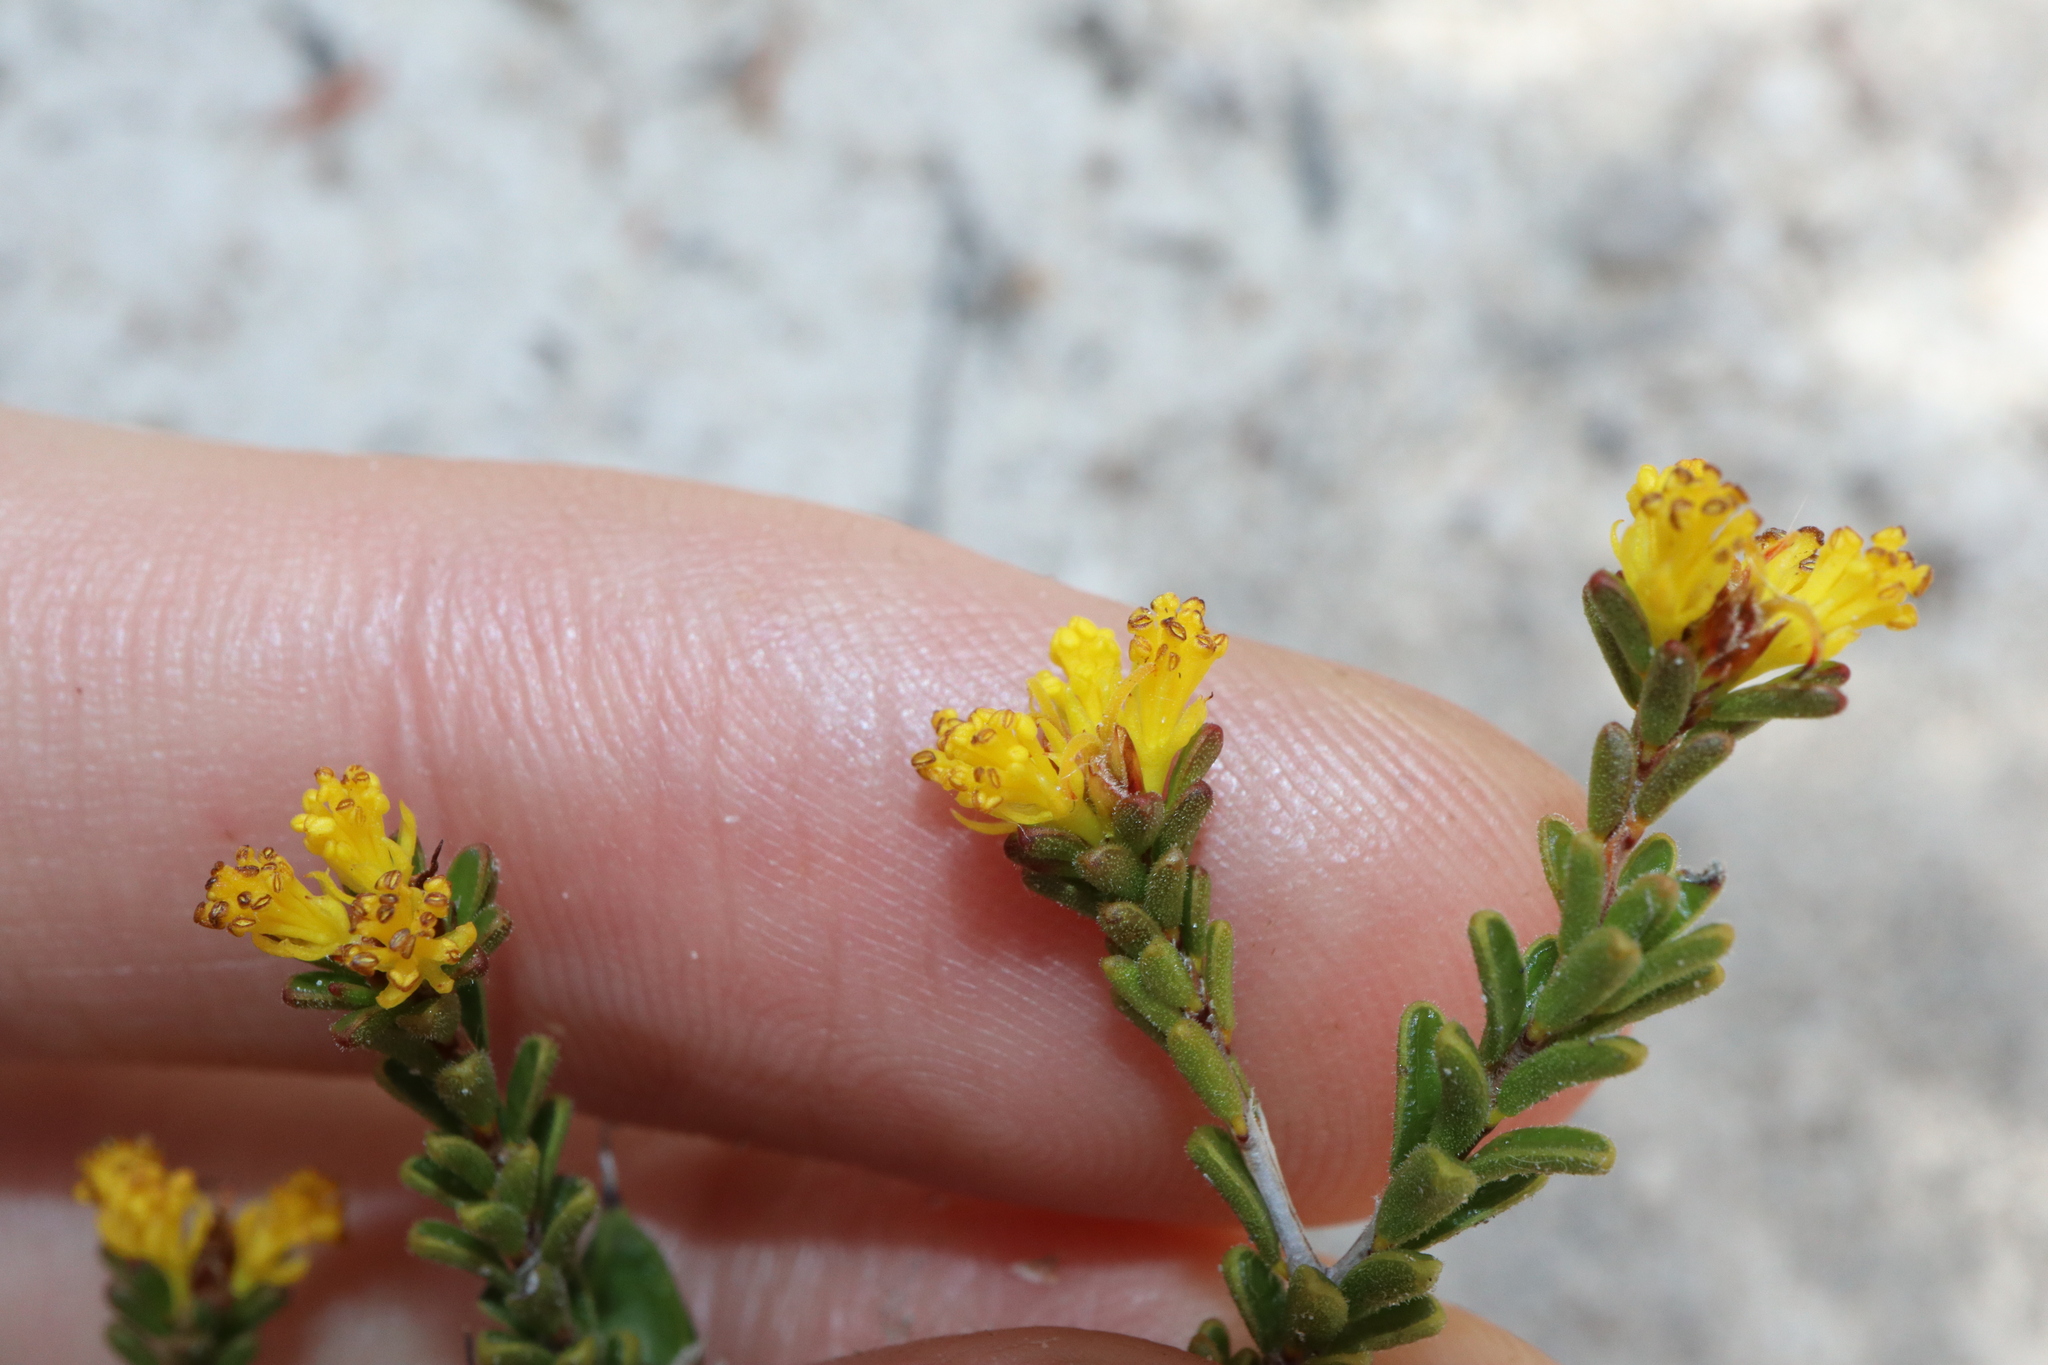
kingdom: Plantae
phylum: Tracheophyta
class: Magnoliopsida
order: Malpighiales
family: Picrodendraceae
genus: Stachystemon
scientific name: Stachystemon polyandrus
